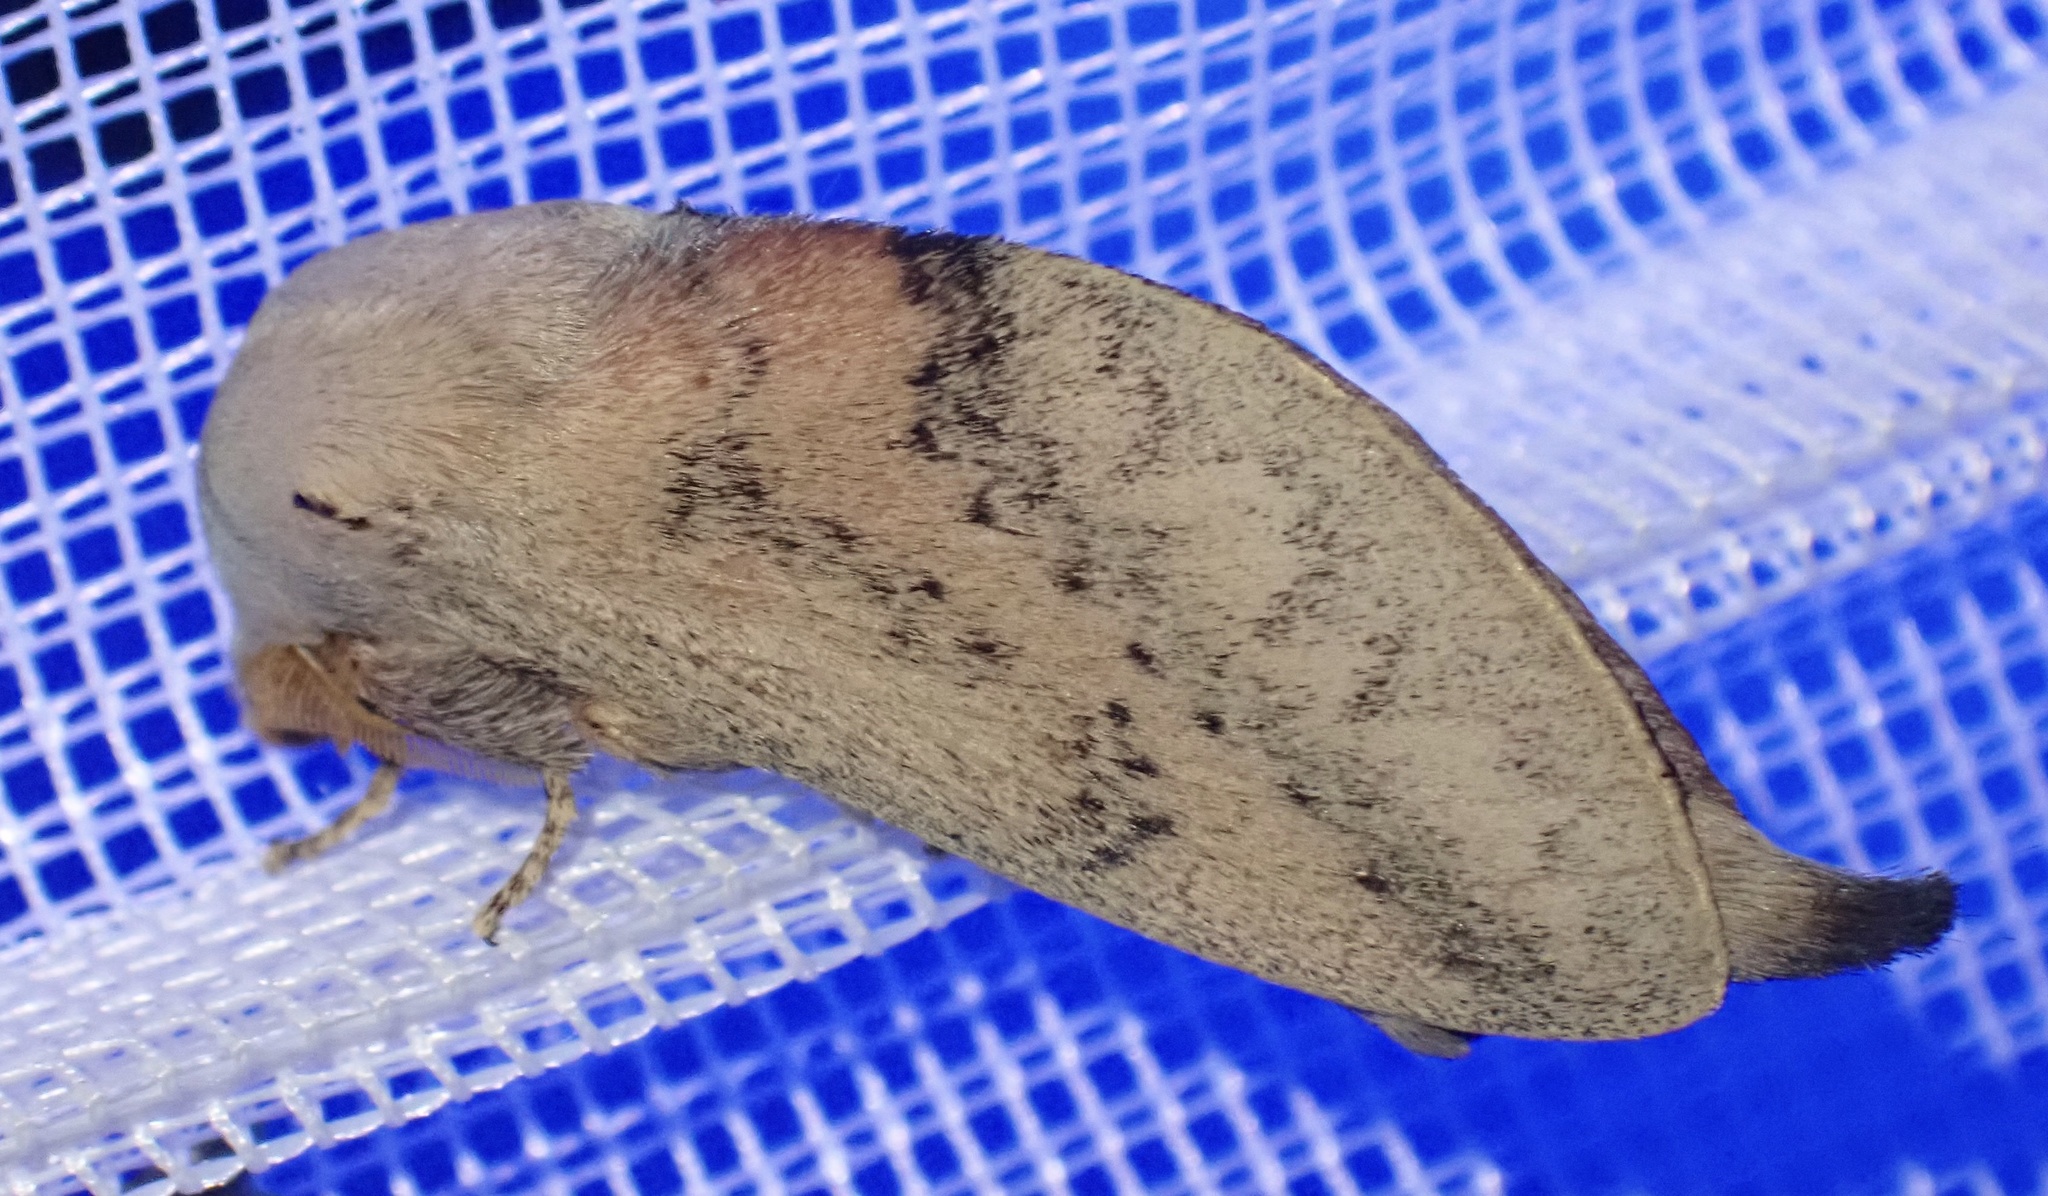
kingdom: Animalia
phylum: Arthropoda
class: Insecta
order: Lepidoptera
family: Lasiocampidae
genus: Pallastica
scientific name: Pallastica pallens
